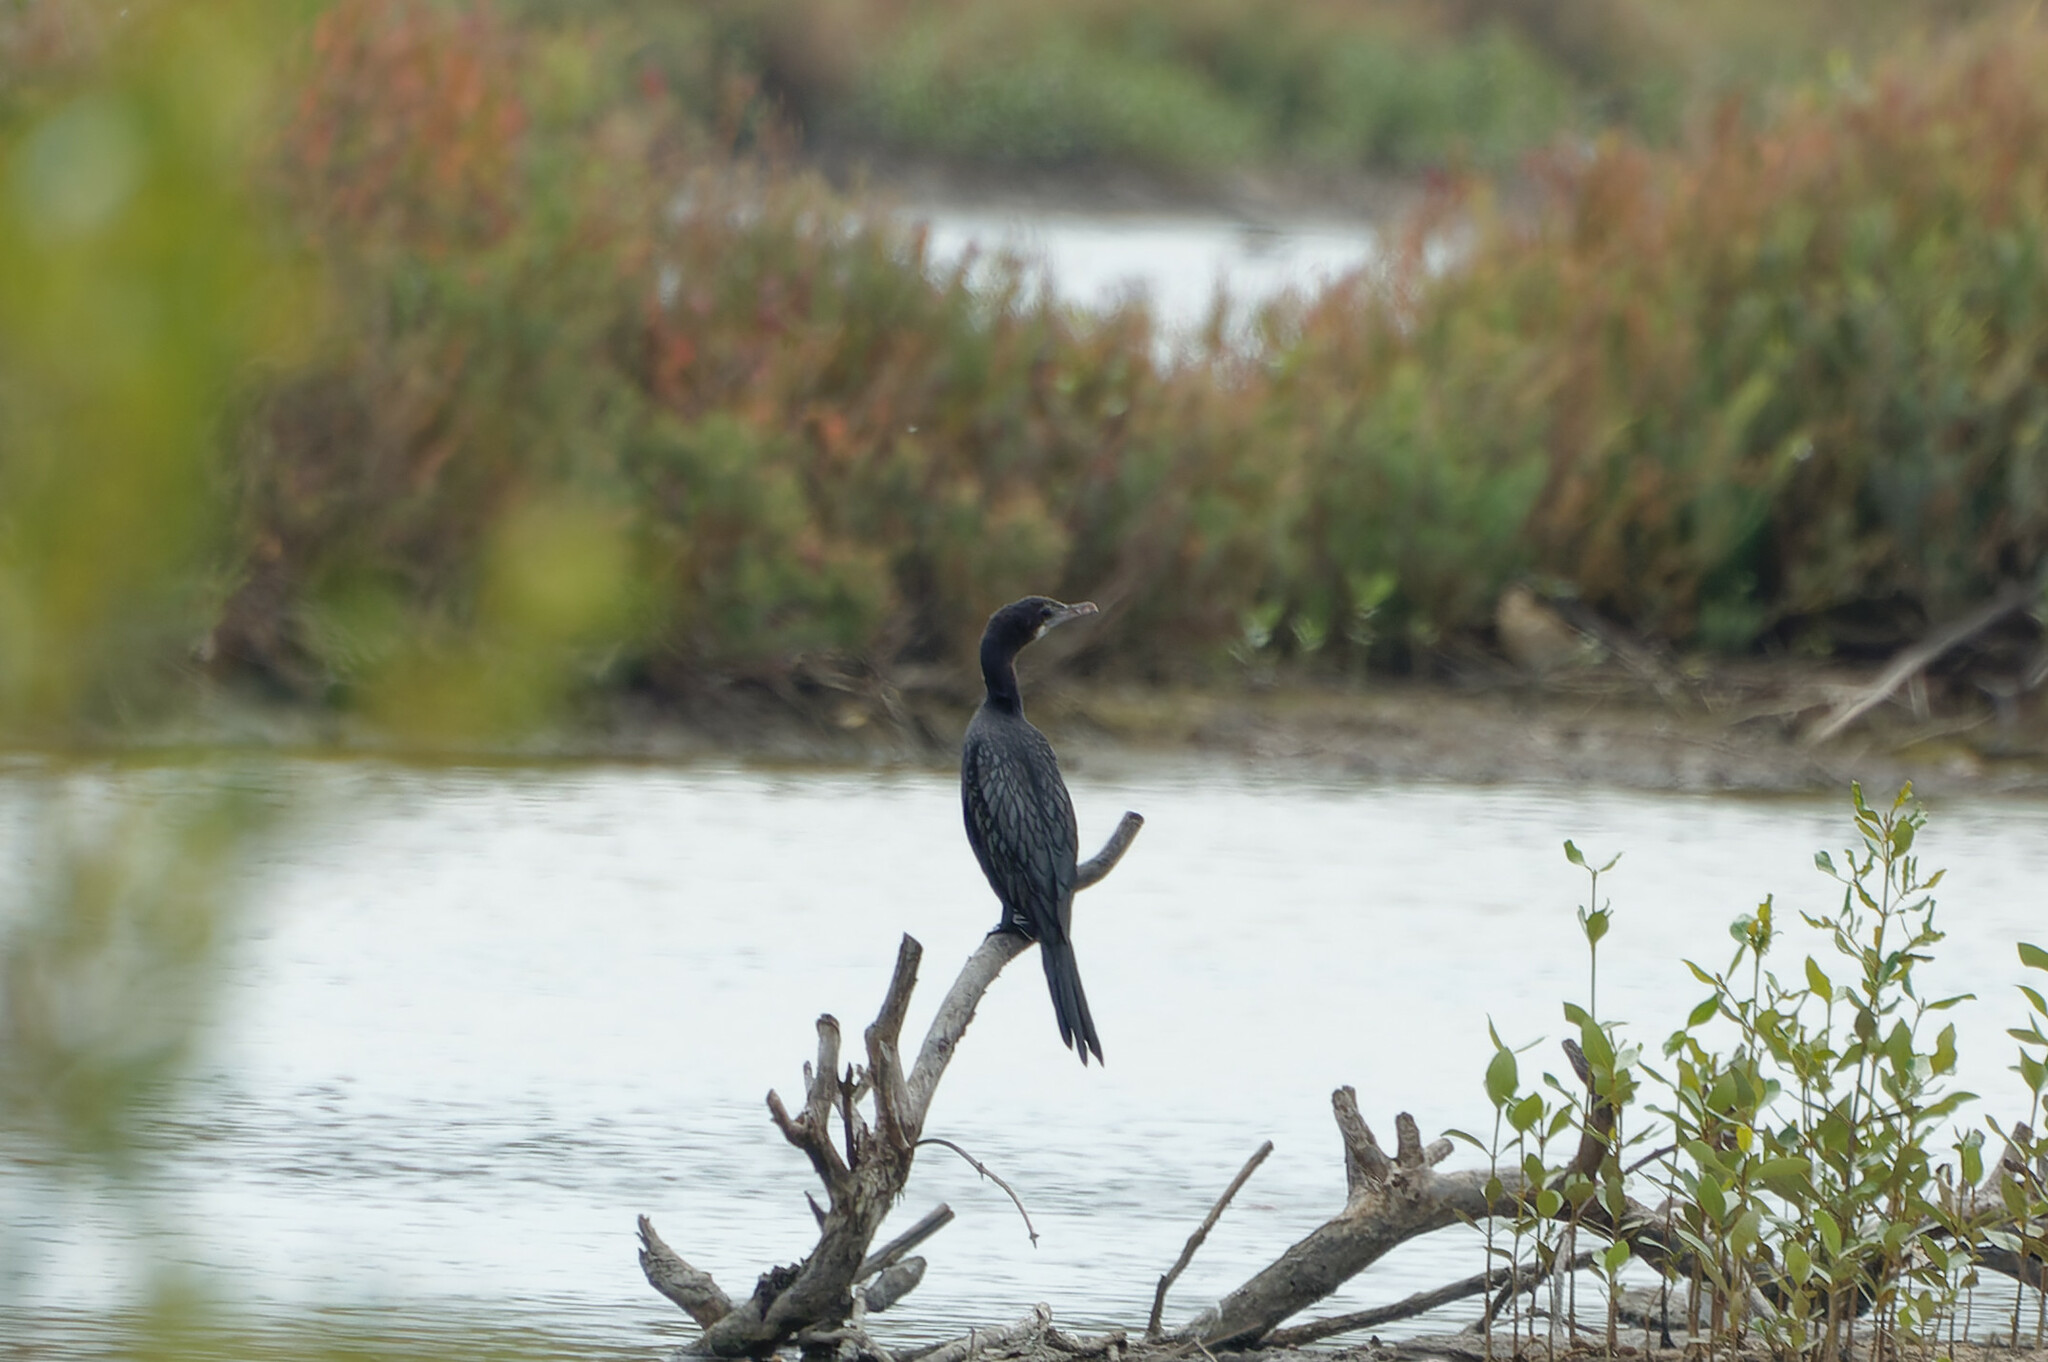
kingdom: Animalia
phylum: Chordata
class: Aves
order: Suliformes
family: Phalacrocoracidae
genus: Microcarbo
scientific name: Microcarbo niger
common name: Little cormorant
